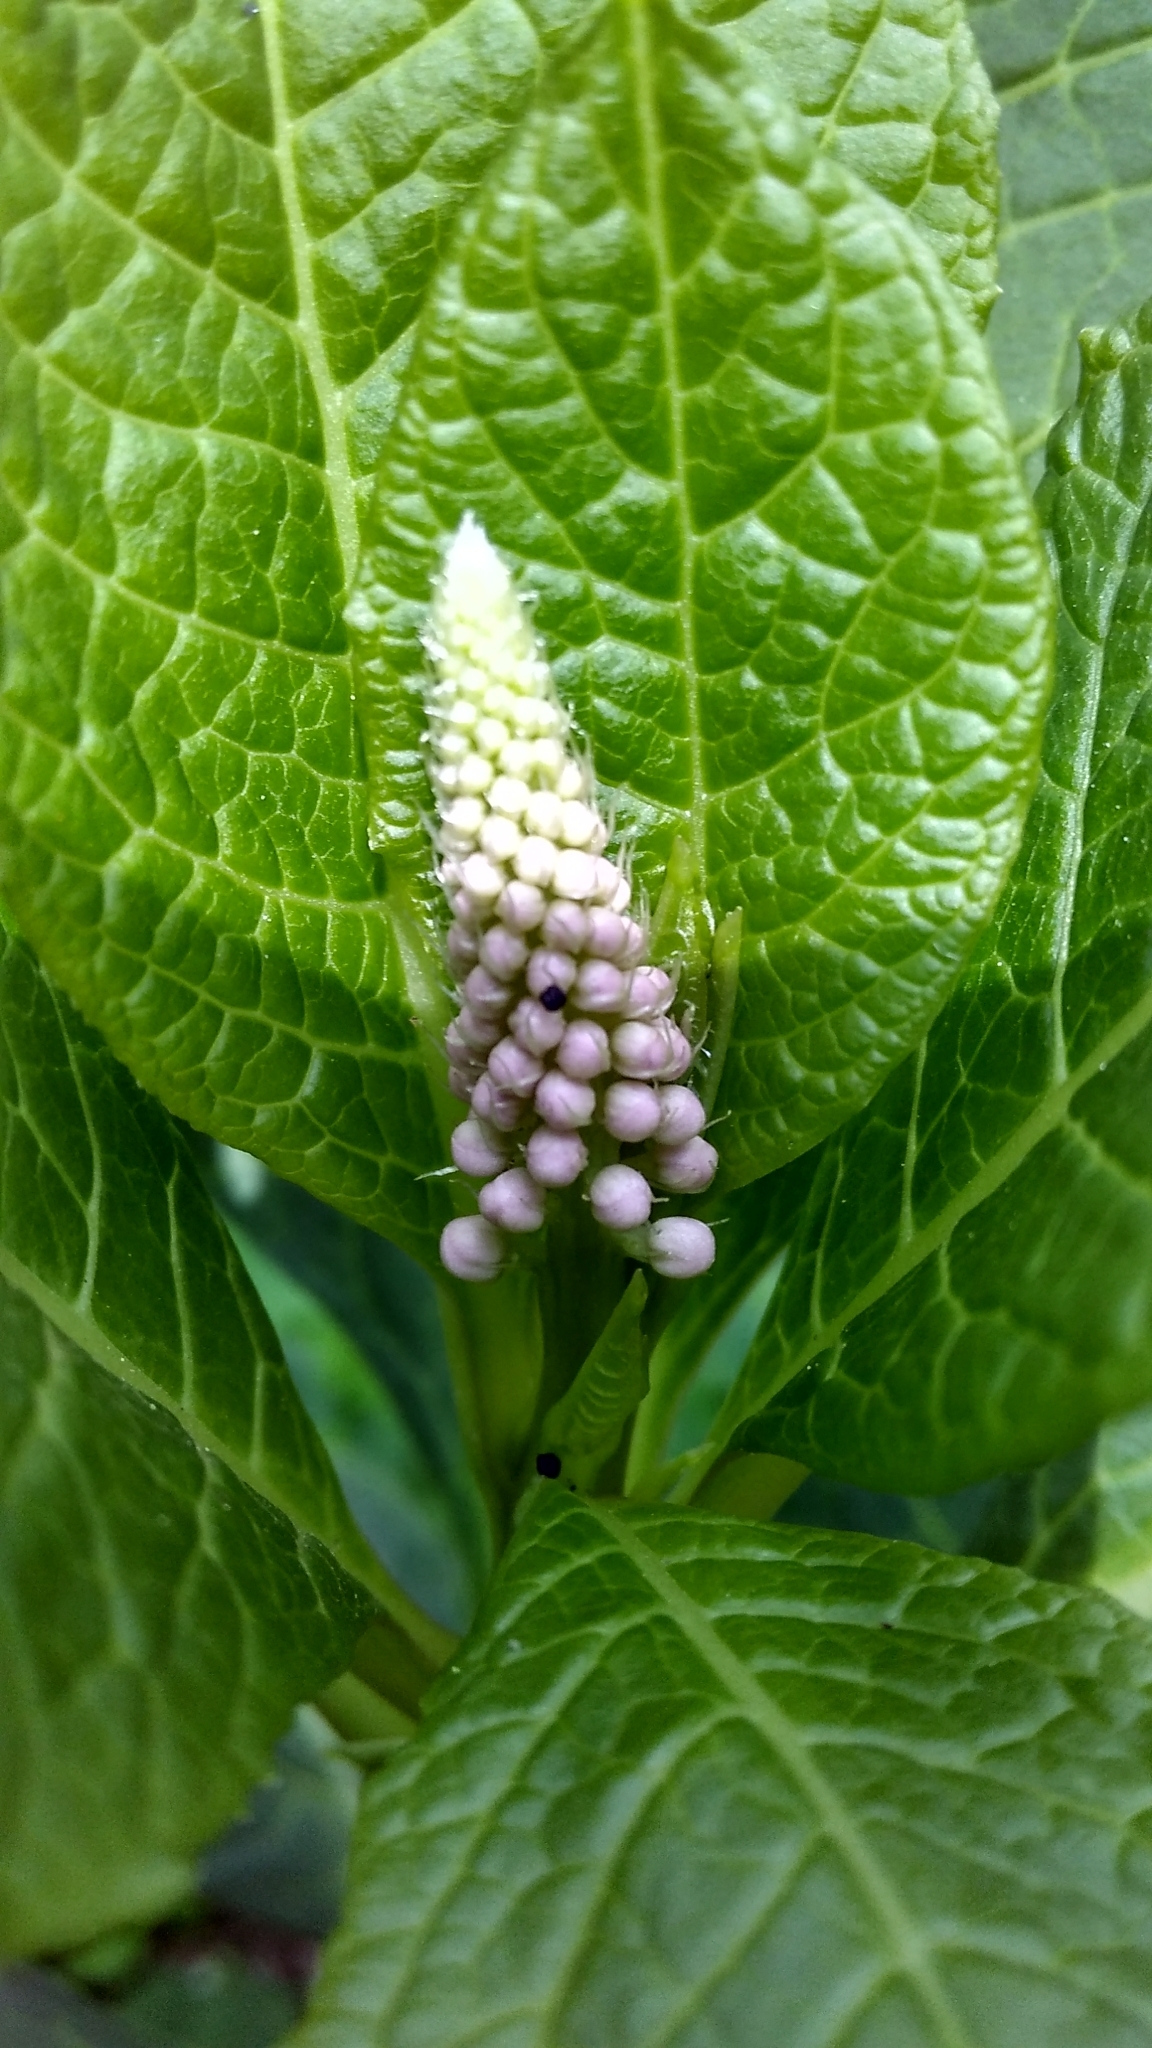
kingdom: Plantae
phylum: Tracheophyta
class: Magnoliopsida
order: Caryophyllales
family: Phytolaccaceae
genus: Phytolacca
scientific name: Phytolacca acinosa
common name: Indian pokeweed
